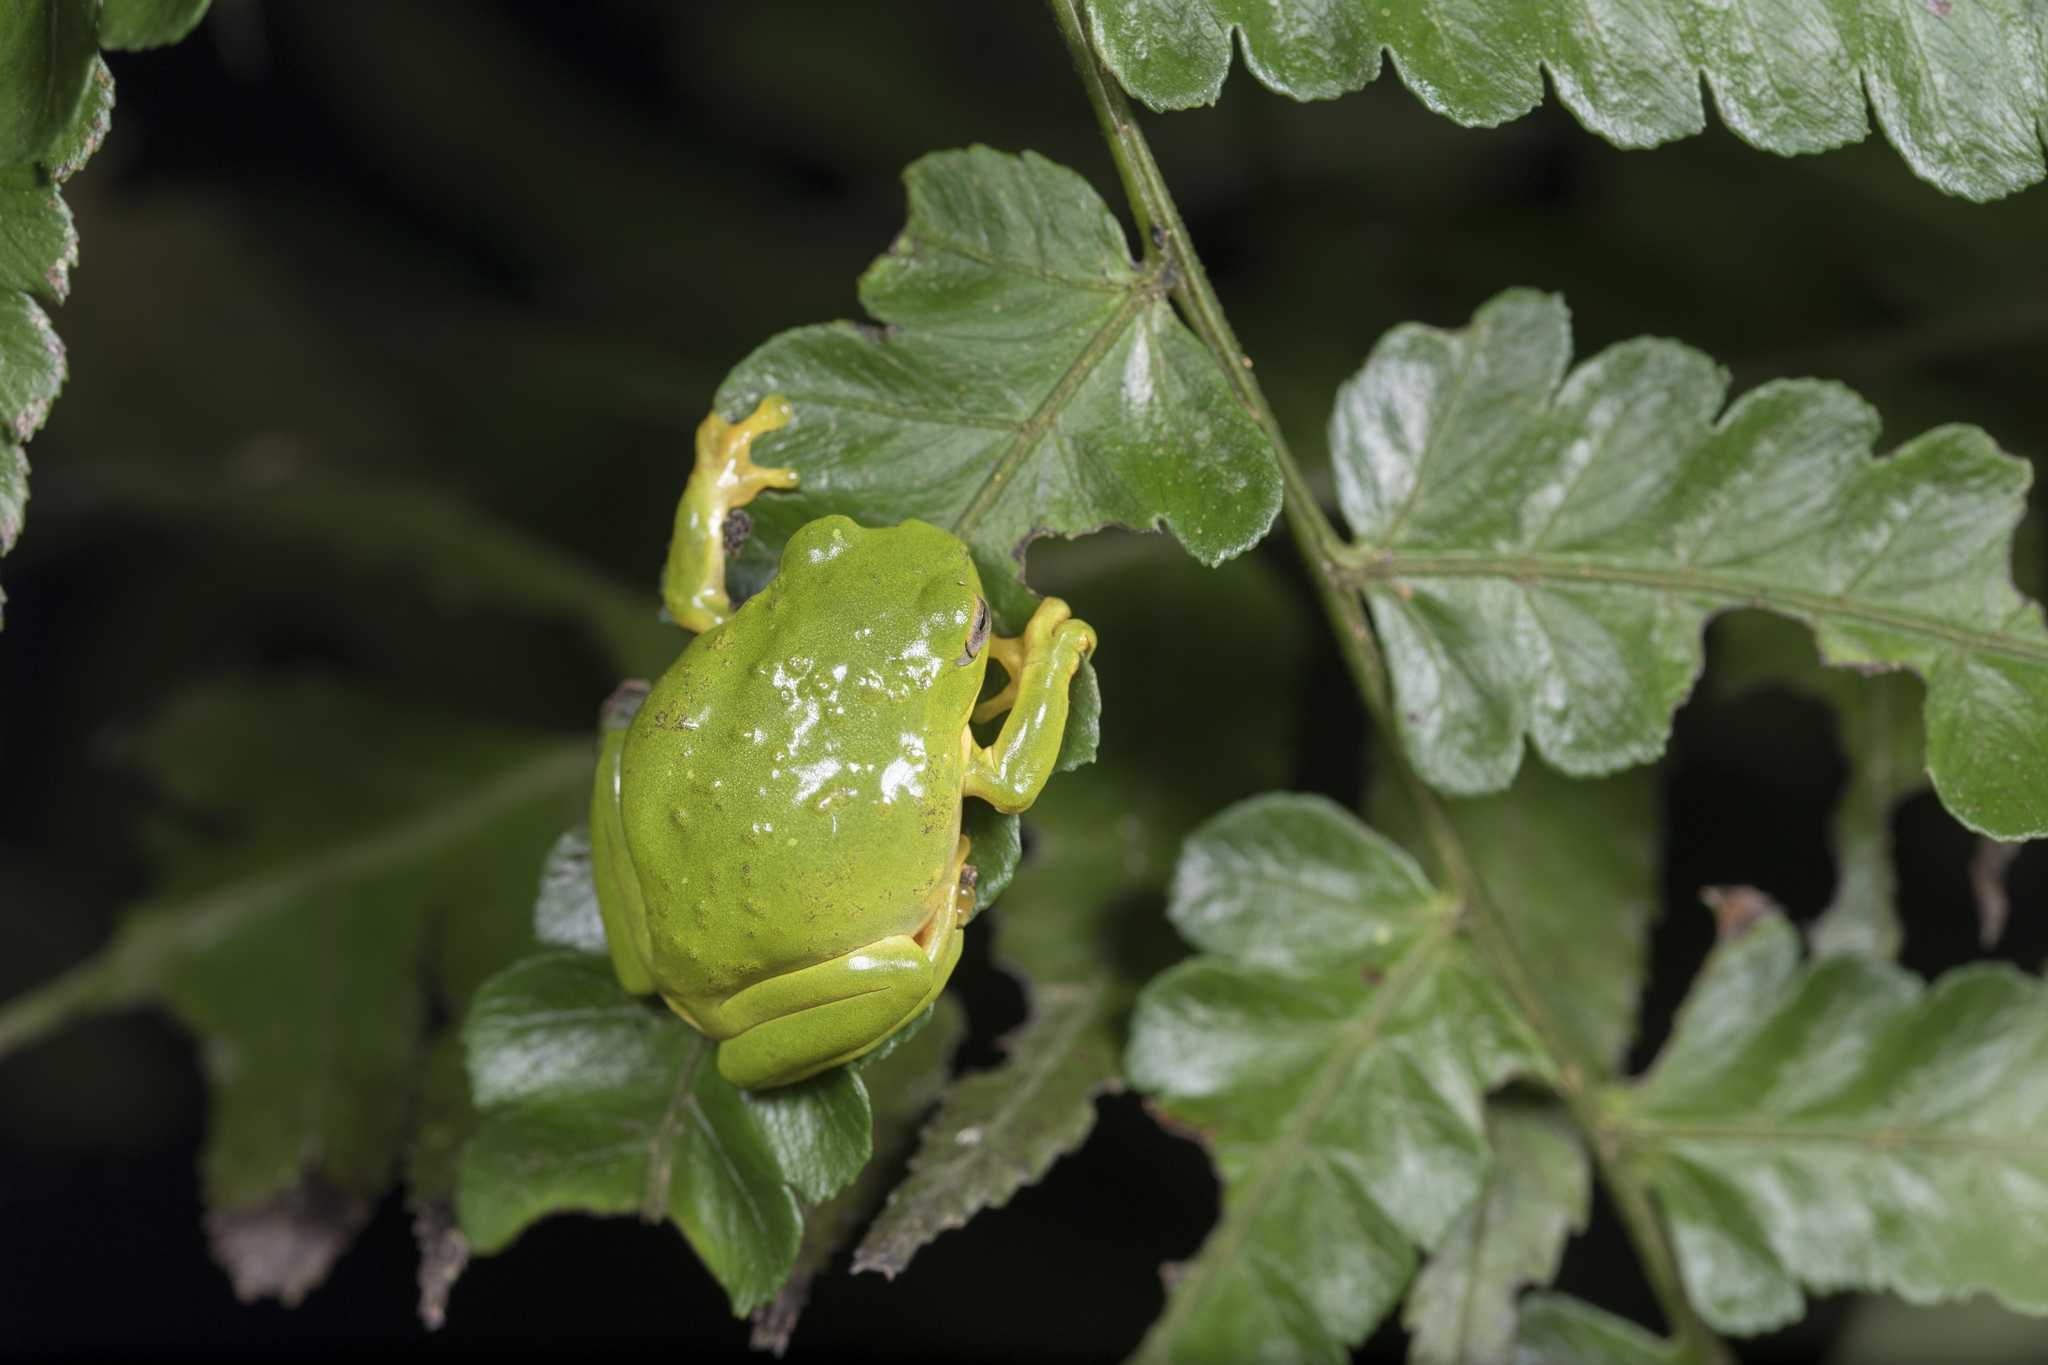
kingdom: Animalia
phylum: Chordata
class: Amphibia
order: Anura
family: Rhacophoridae
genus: Zhangixalus
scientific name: Zhangixalus moltrechti
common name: Moltrecht's treefrog
